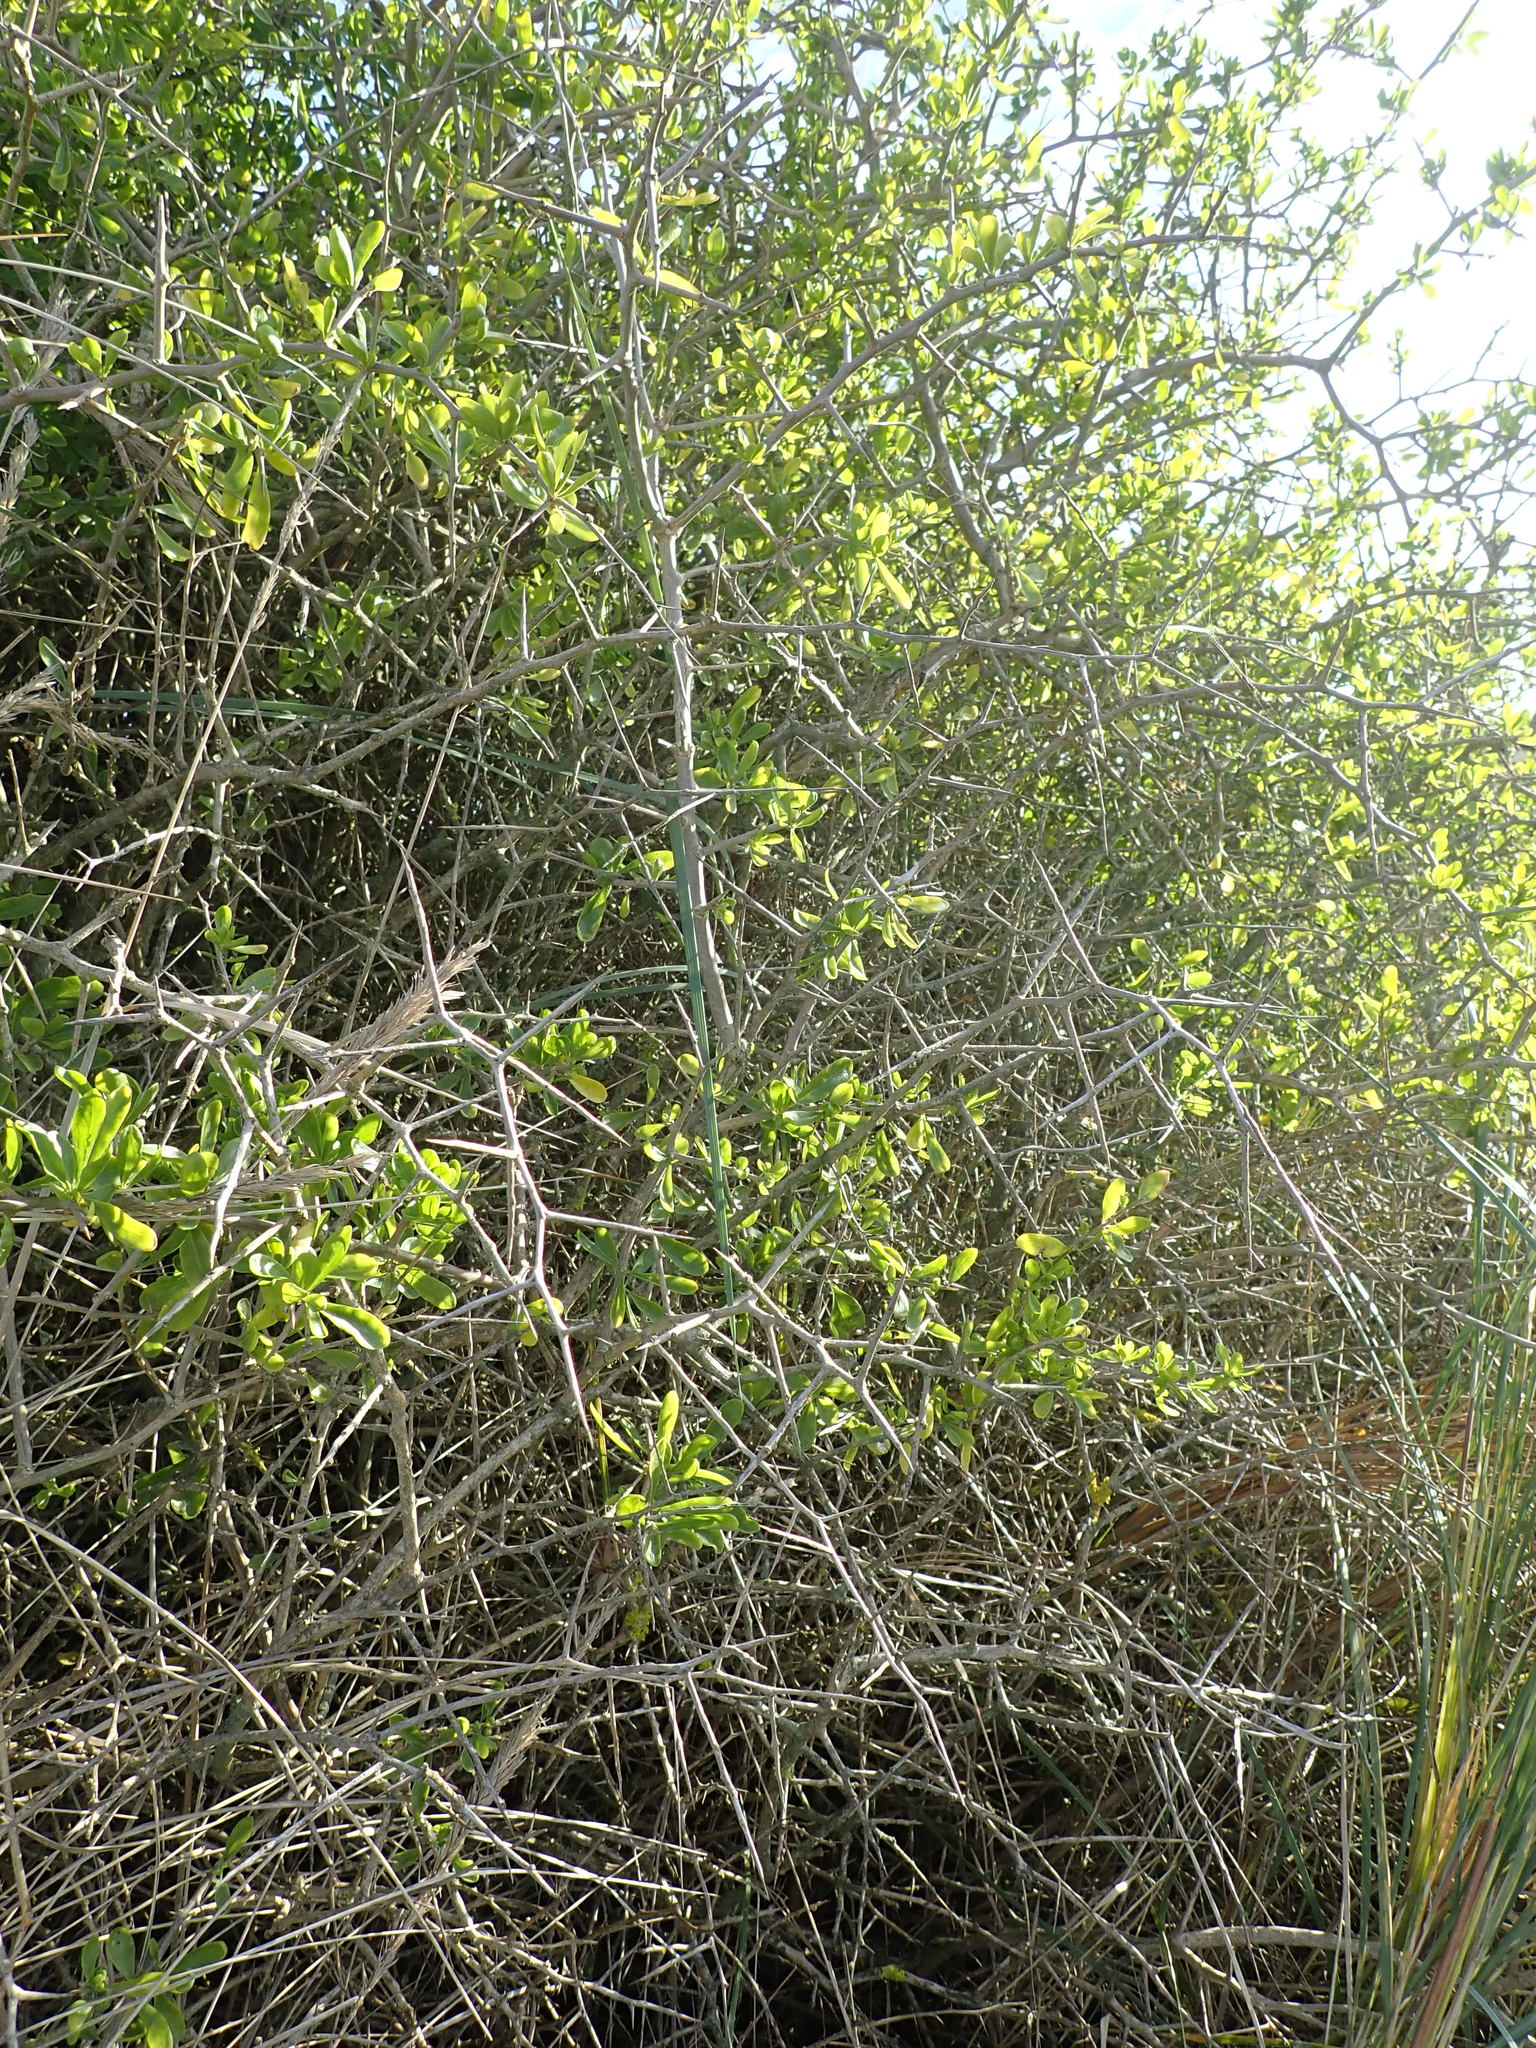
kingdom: Plantae
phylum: Tracheophyta
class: Magnoliopsida
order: Solanales
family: Solanaceae
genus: Lycium
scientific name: Lycium ferocissimum
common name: African boxthorn
